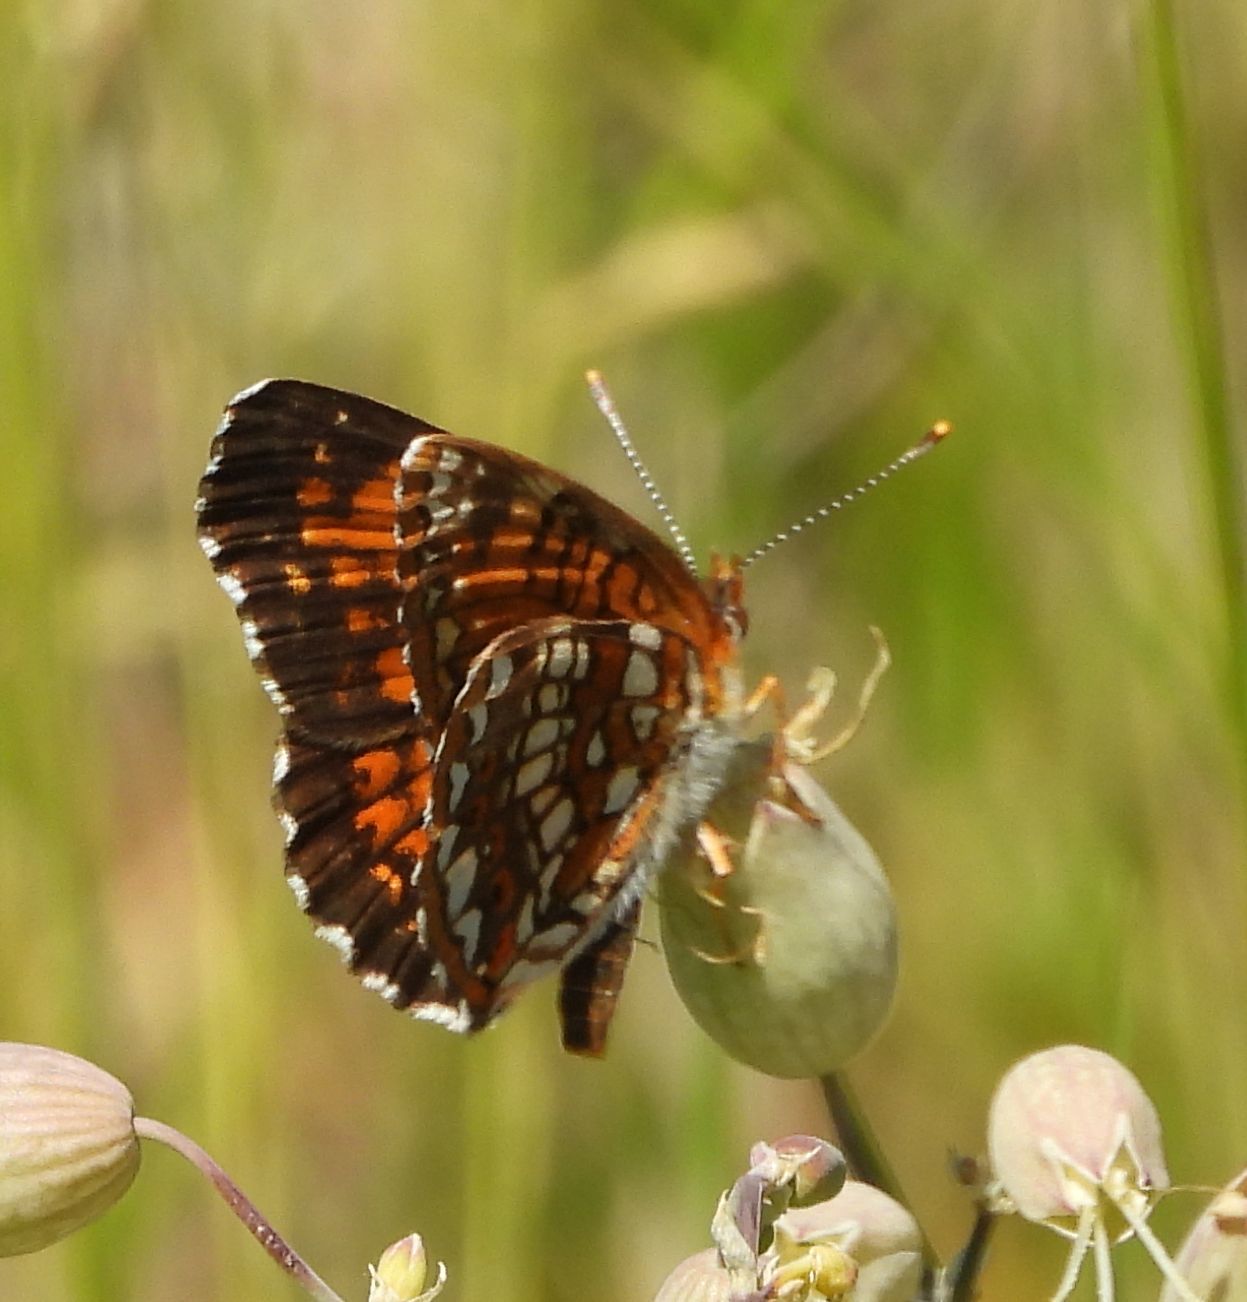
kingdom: Animalia
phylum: Arthropoda
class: Insecta
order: Lepidoptera
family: Nymphalidae
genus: Chlosyne
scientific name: Chlosyne harrisii
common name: Harris's checkerspot
